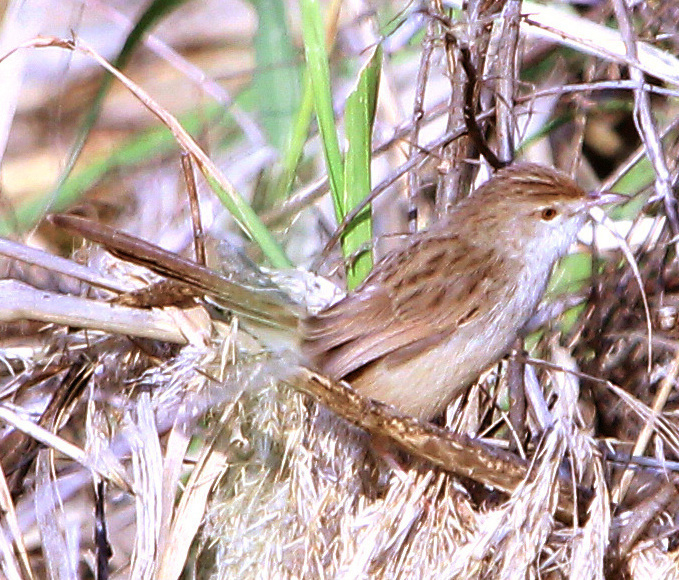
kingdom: Animalia
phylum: Chordata
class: Aves
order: Passeriformes
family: Cisticolidae
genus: Prinia
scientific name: Prinia gracilis
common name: Graceful prinia
